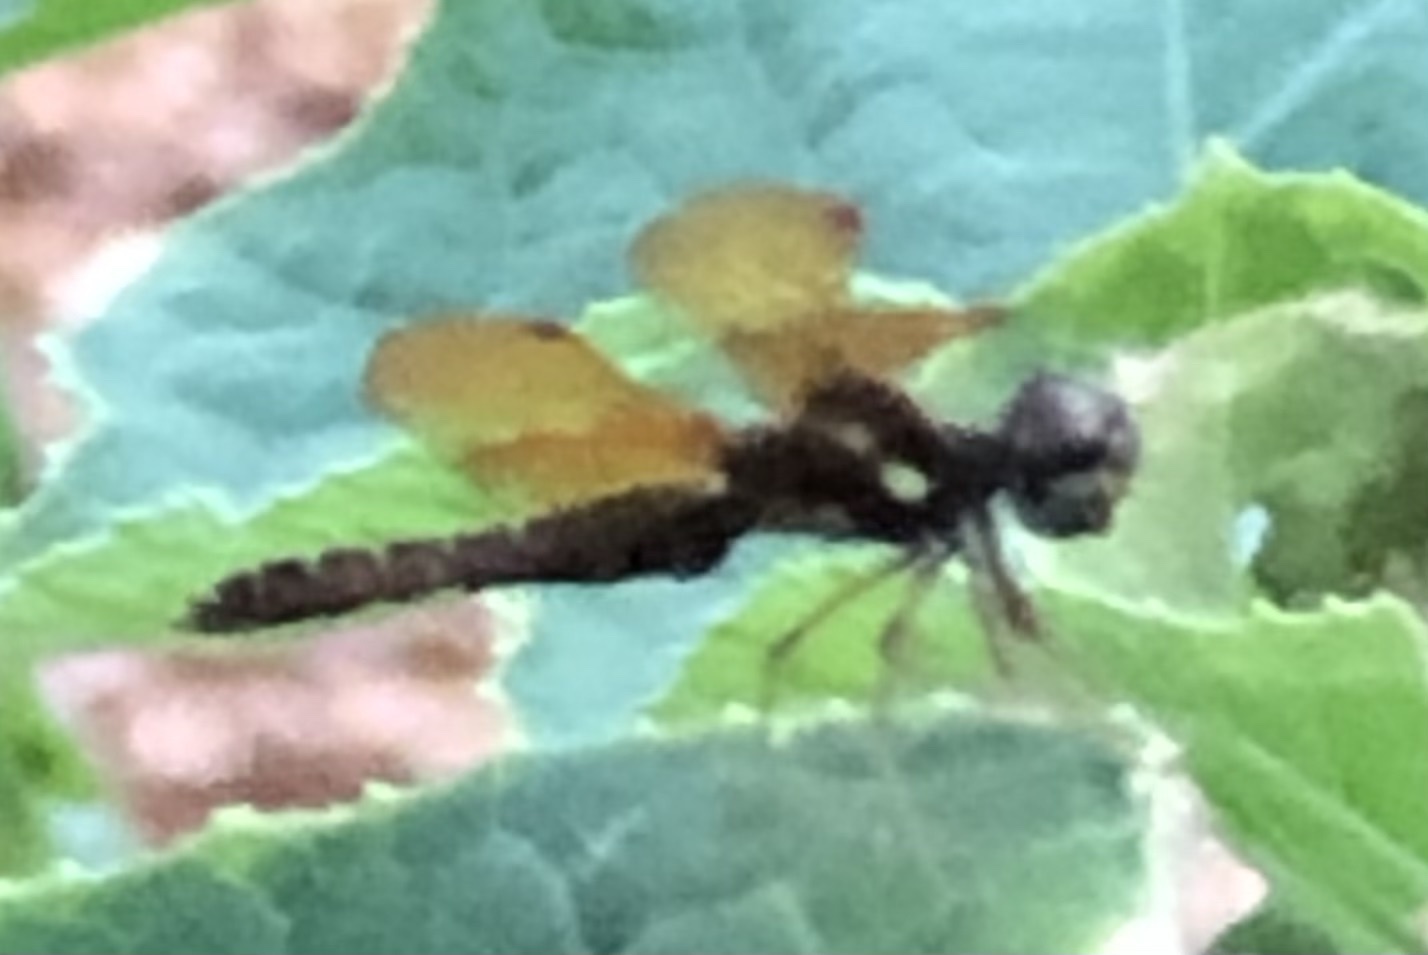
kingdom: Animalia
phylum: Arthropoda
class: Insecta
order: Odonata
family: Libellulidae
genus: Perithemis
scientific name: Perithemis tenera
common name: Eastern amberwing
